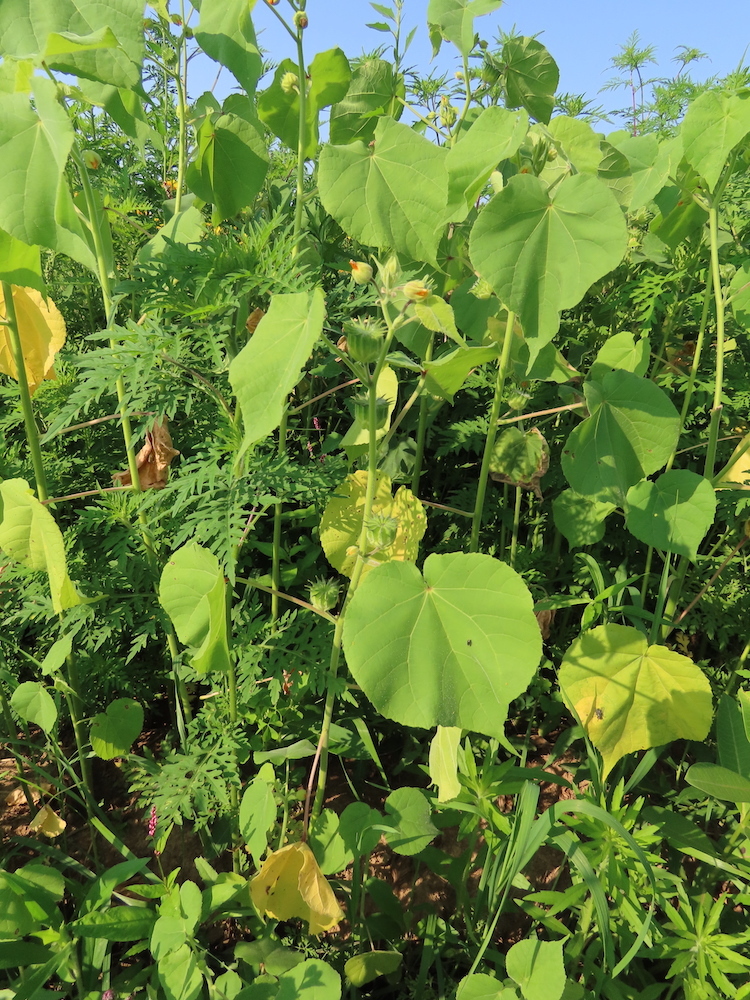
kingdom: Plantae
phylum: Tracheophyta
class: Magnoliopsida
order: Malvales
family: Malvaceae
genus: Abutilon
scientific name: Abutilon theophrasti
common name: Velvetleaf
